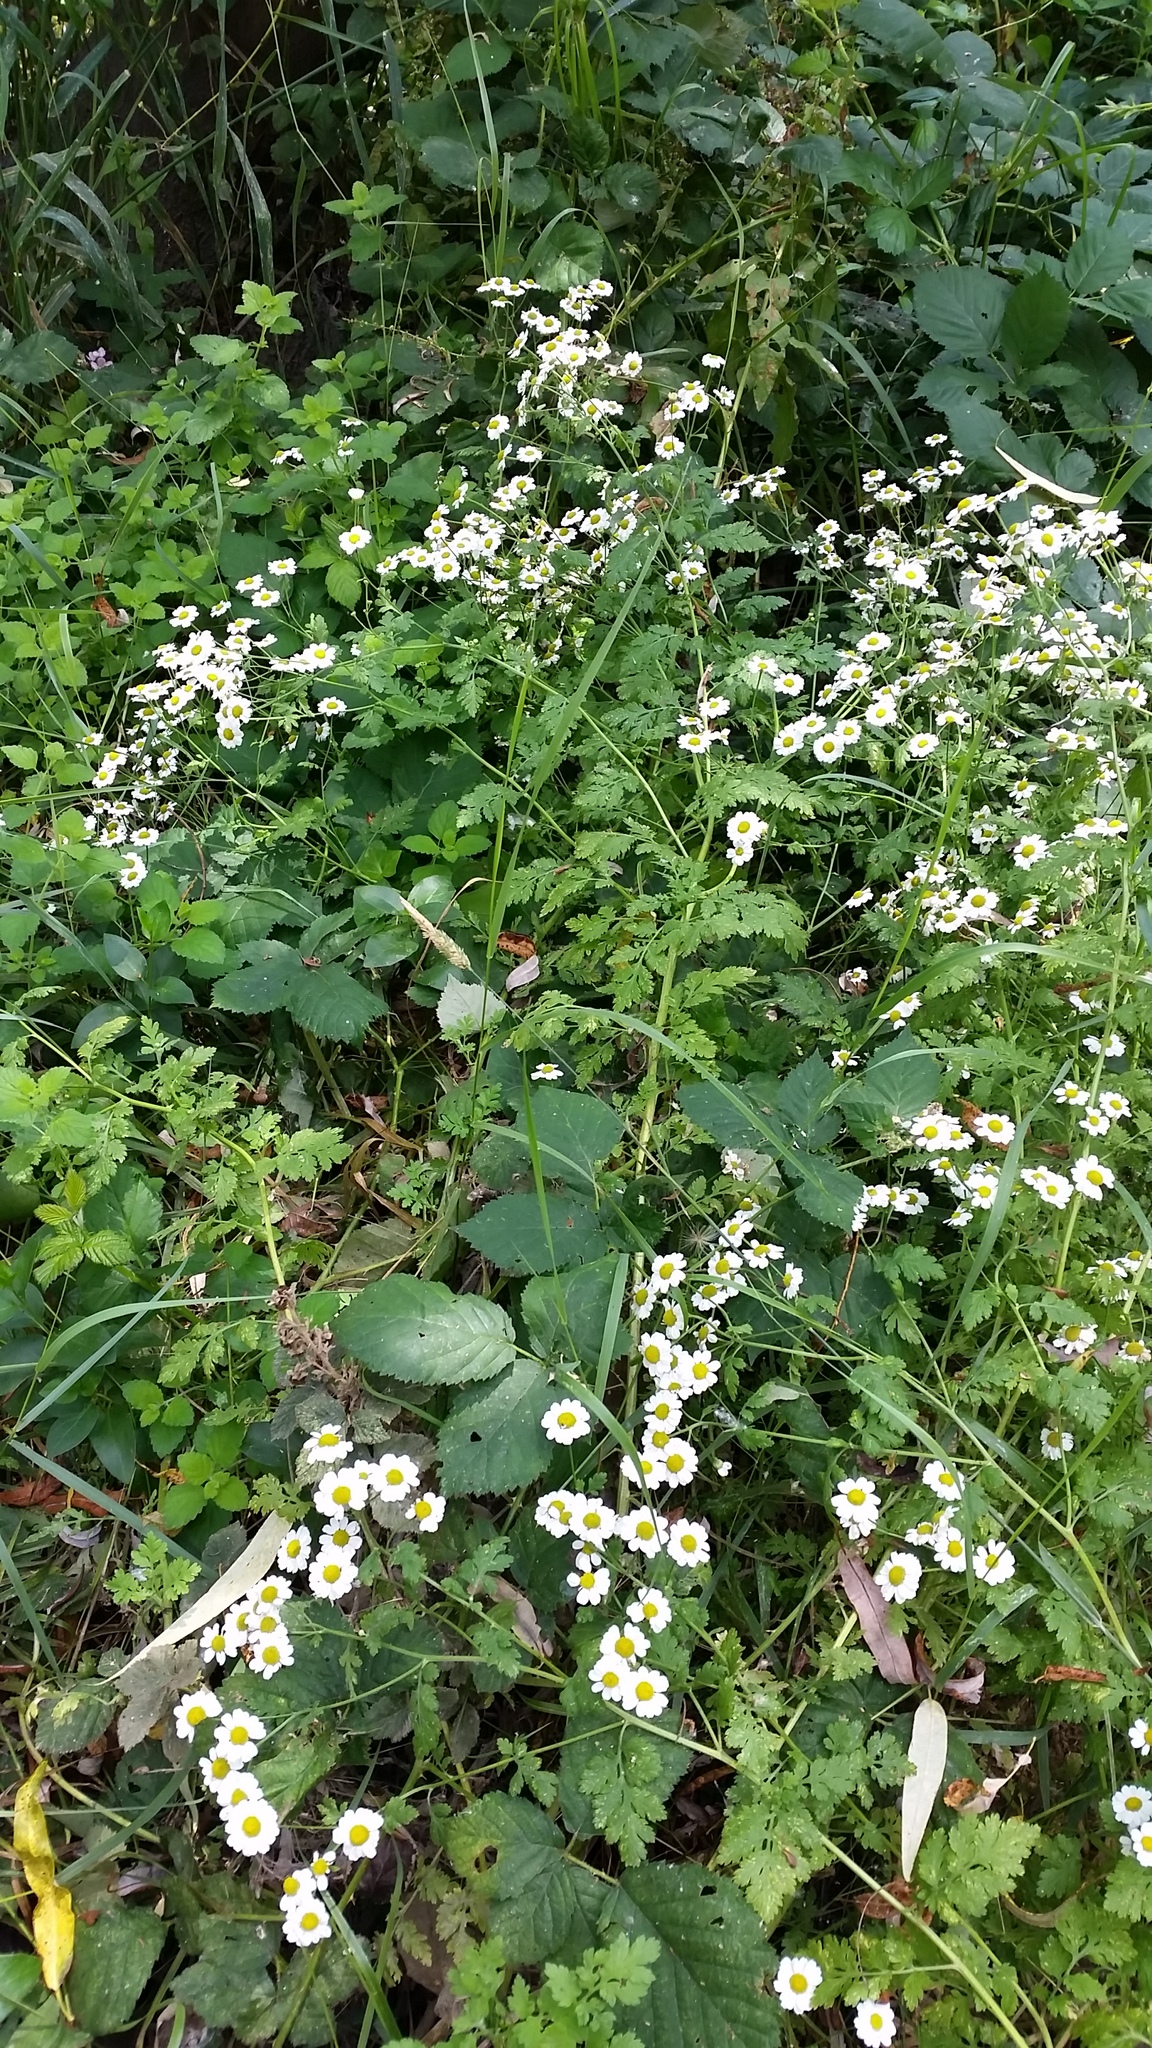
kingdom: Plantae
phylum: Tracheophyta
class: Magnoliopsida
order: Asterales
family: Asteraceae
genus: Tanacetum
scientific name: Tanacetum parthenium
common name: Feverfew
